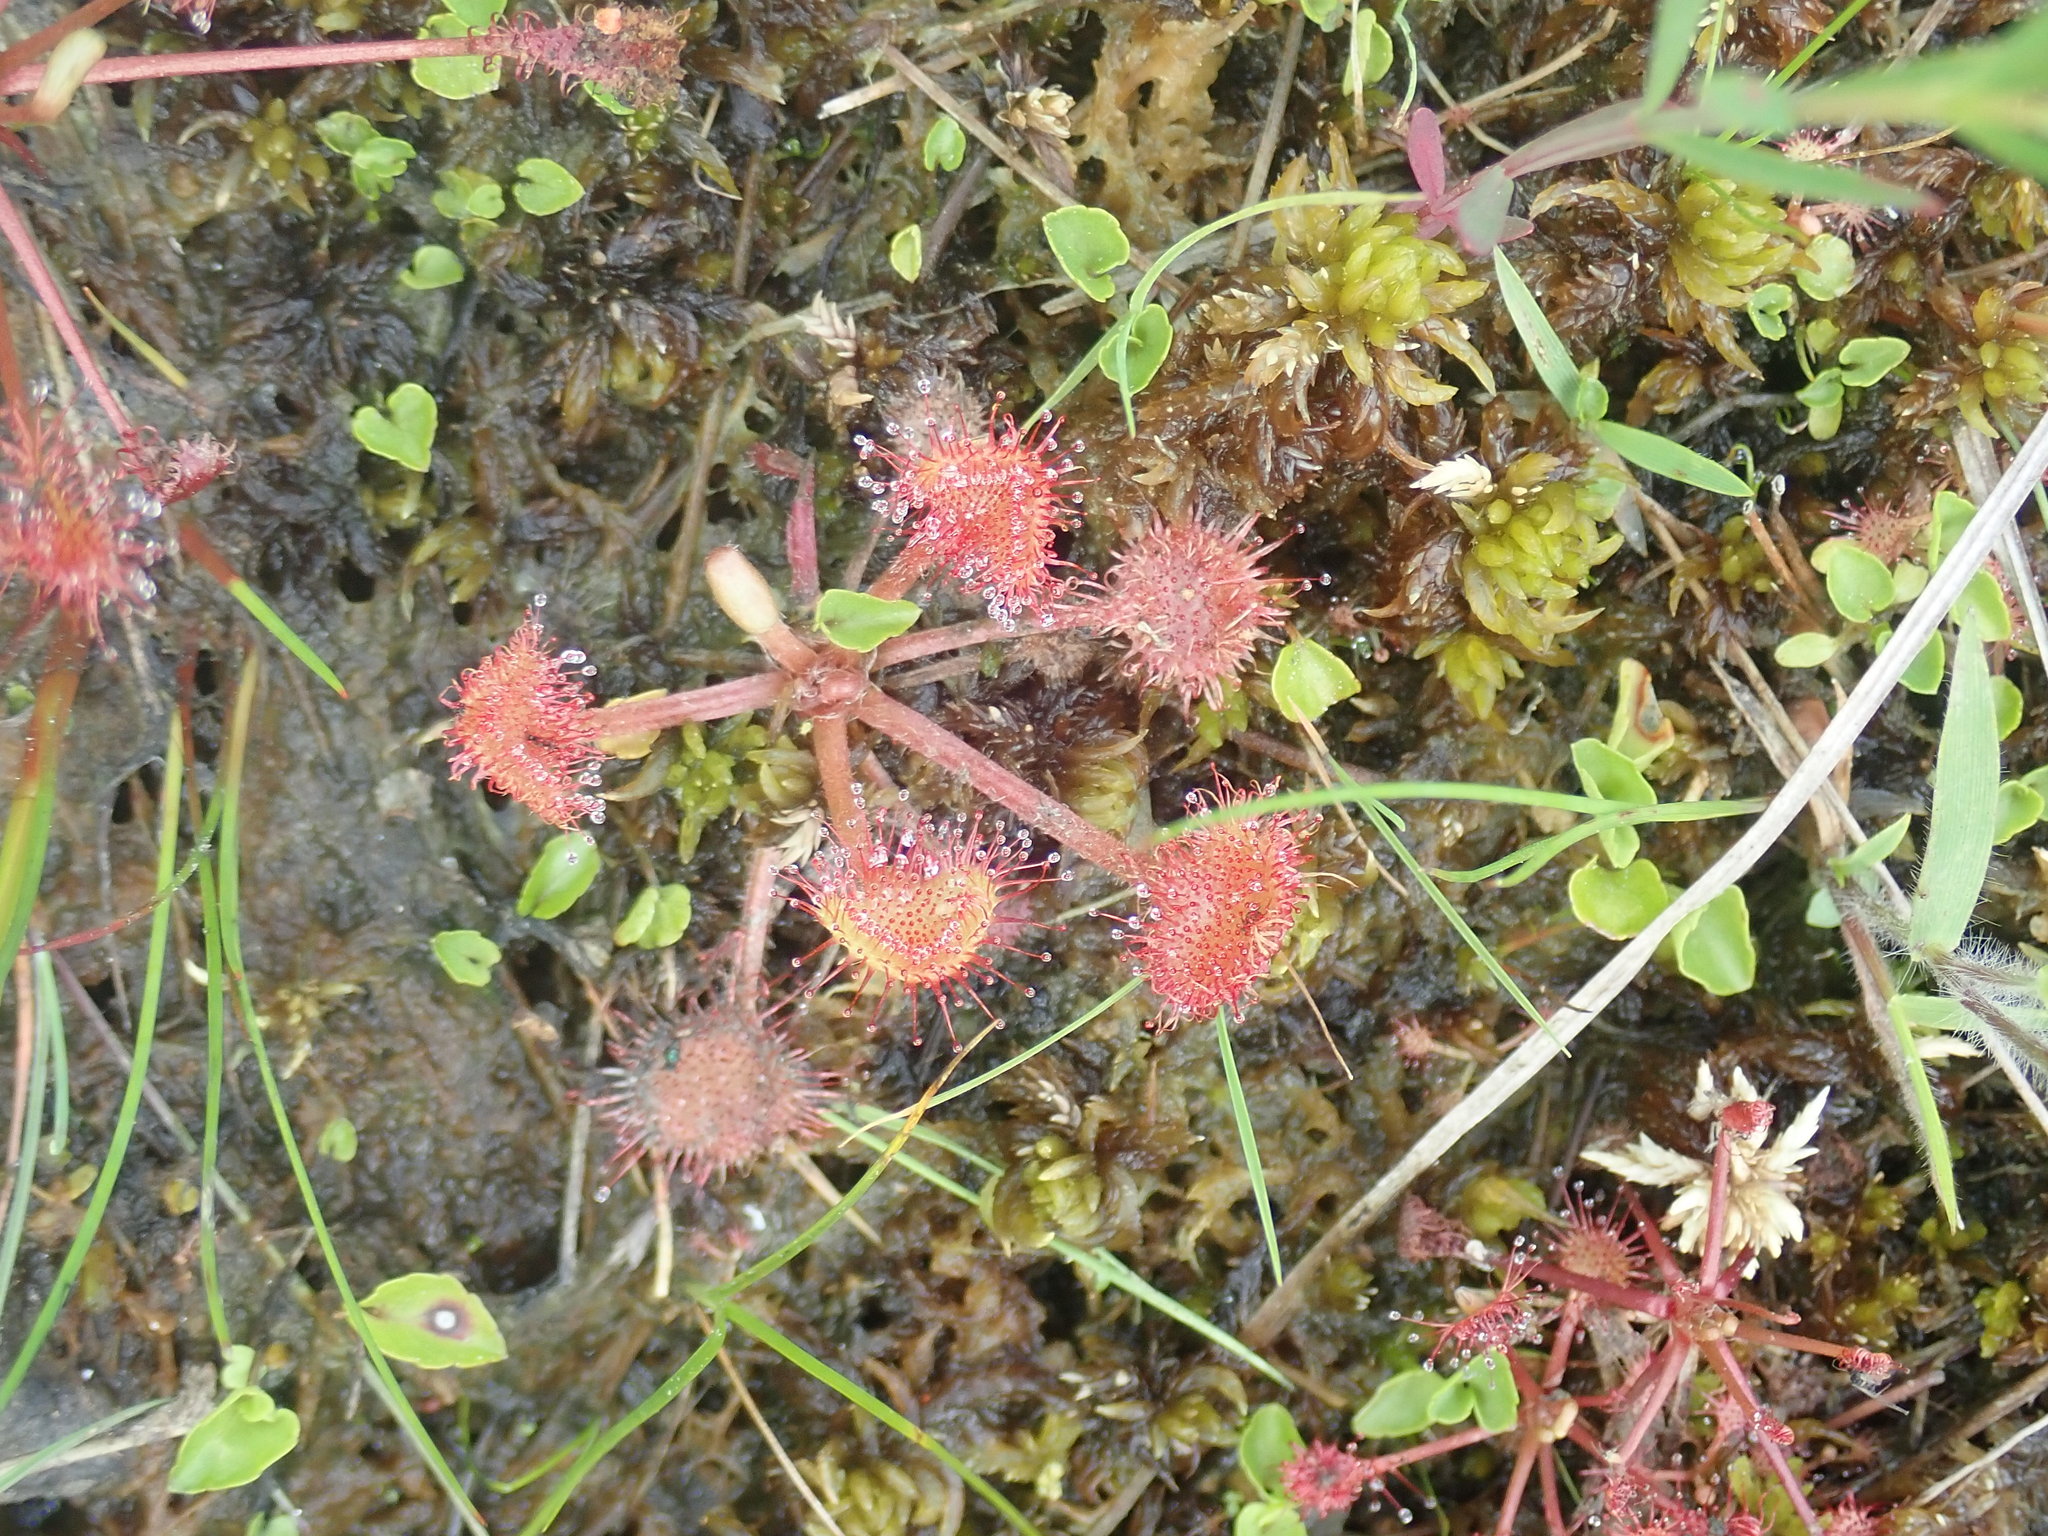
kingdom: Plantae
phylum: Tracheophyta
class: Magnoliopsida
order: Caryophyllales
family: Droseraceae
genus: Drosera
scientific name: Drosera rotundifolia
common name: Round-leaved sundew
